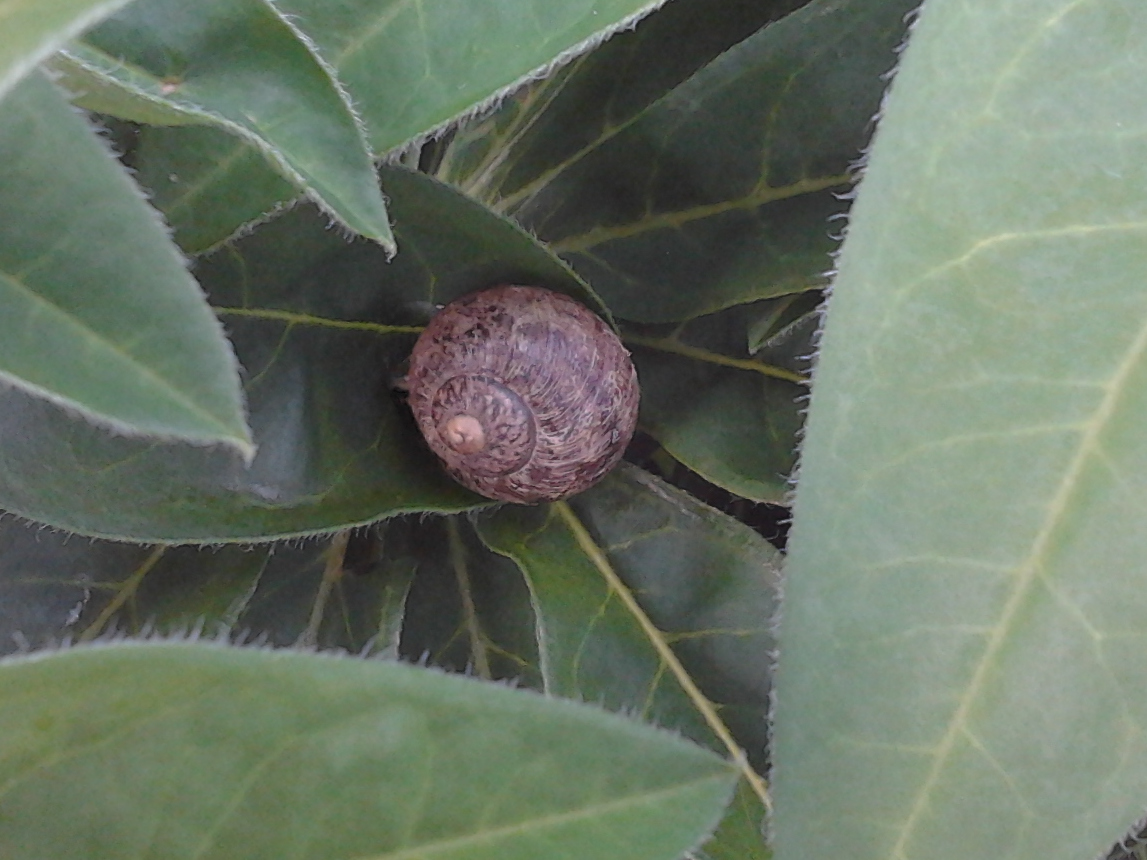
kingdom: Animalia
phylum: Mollusca
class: Gastropoda
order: Stylommatophora
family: Helicidae
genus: Cornu
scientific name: Cornu aspersum
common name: Brown garden snail
